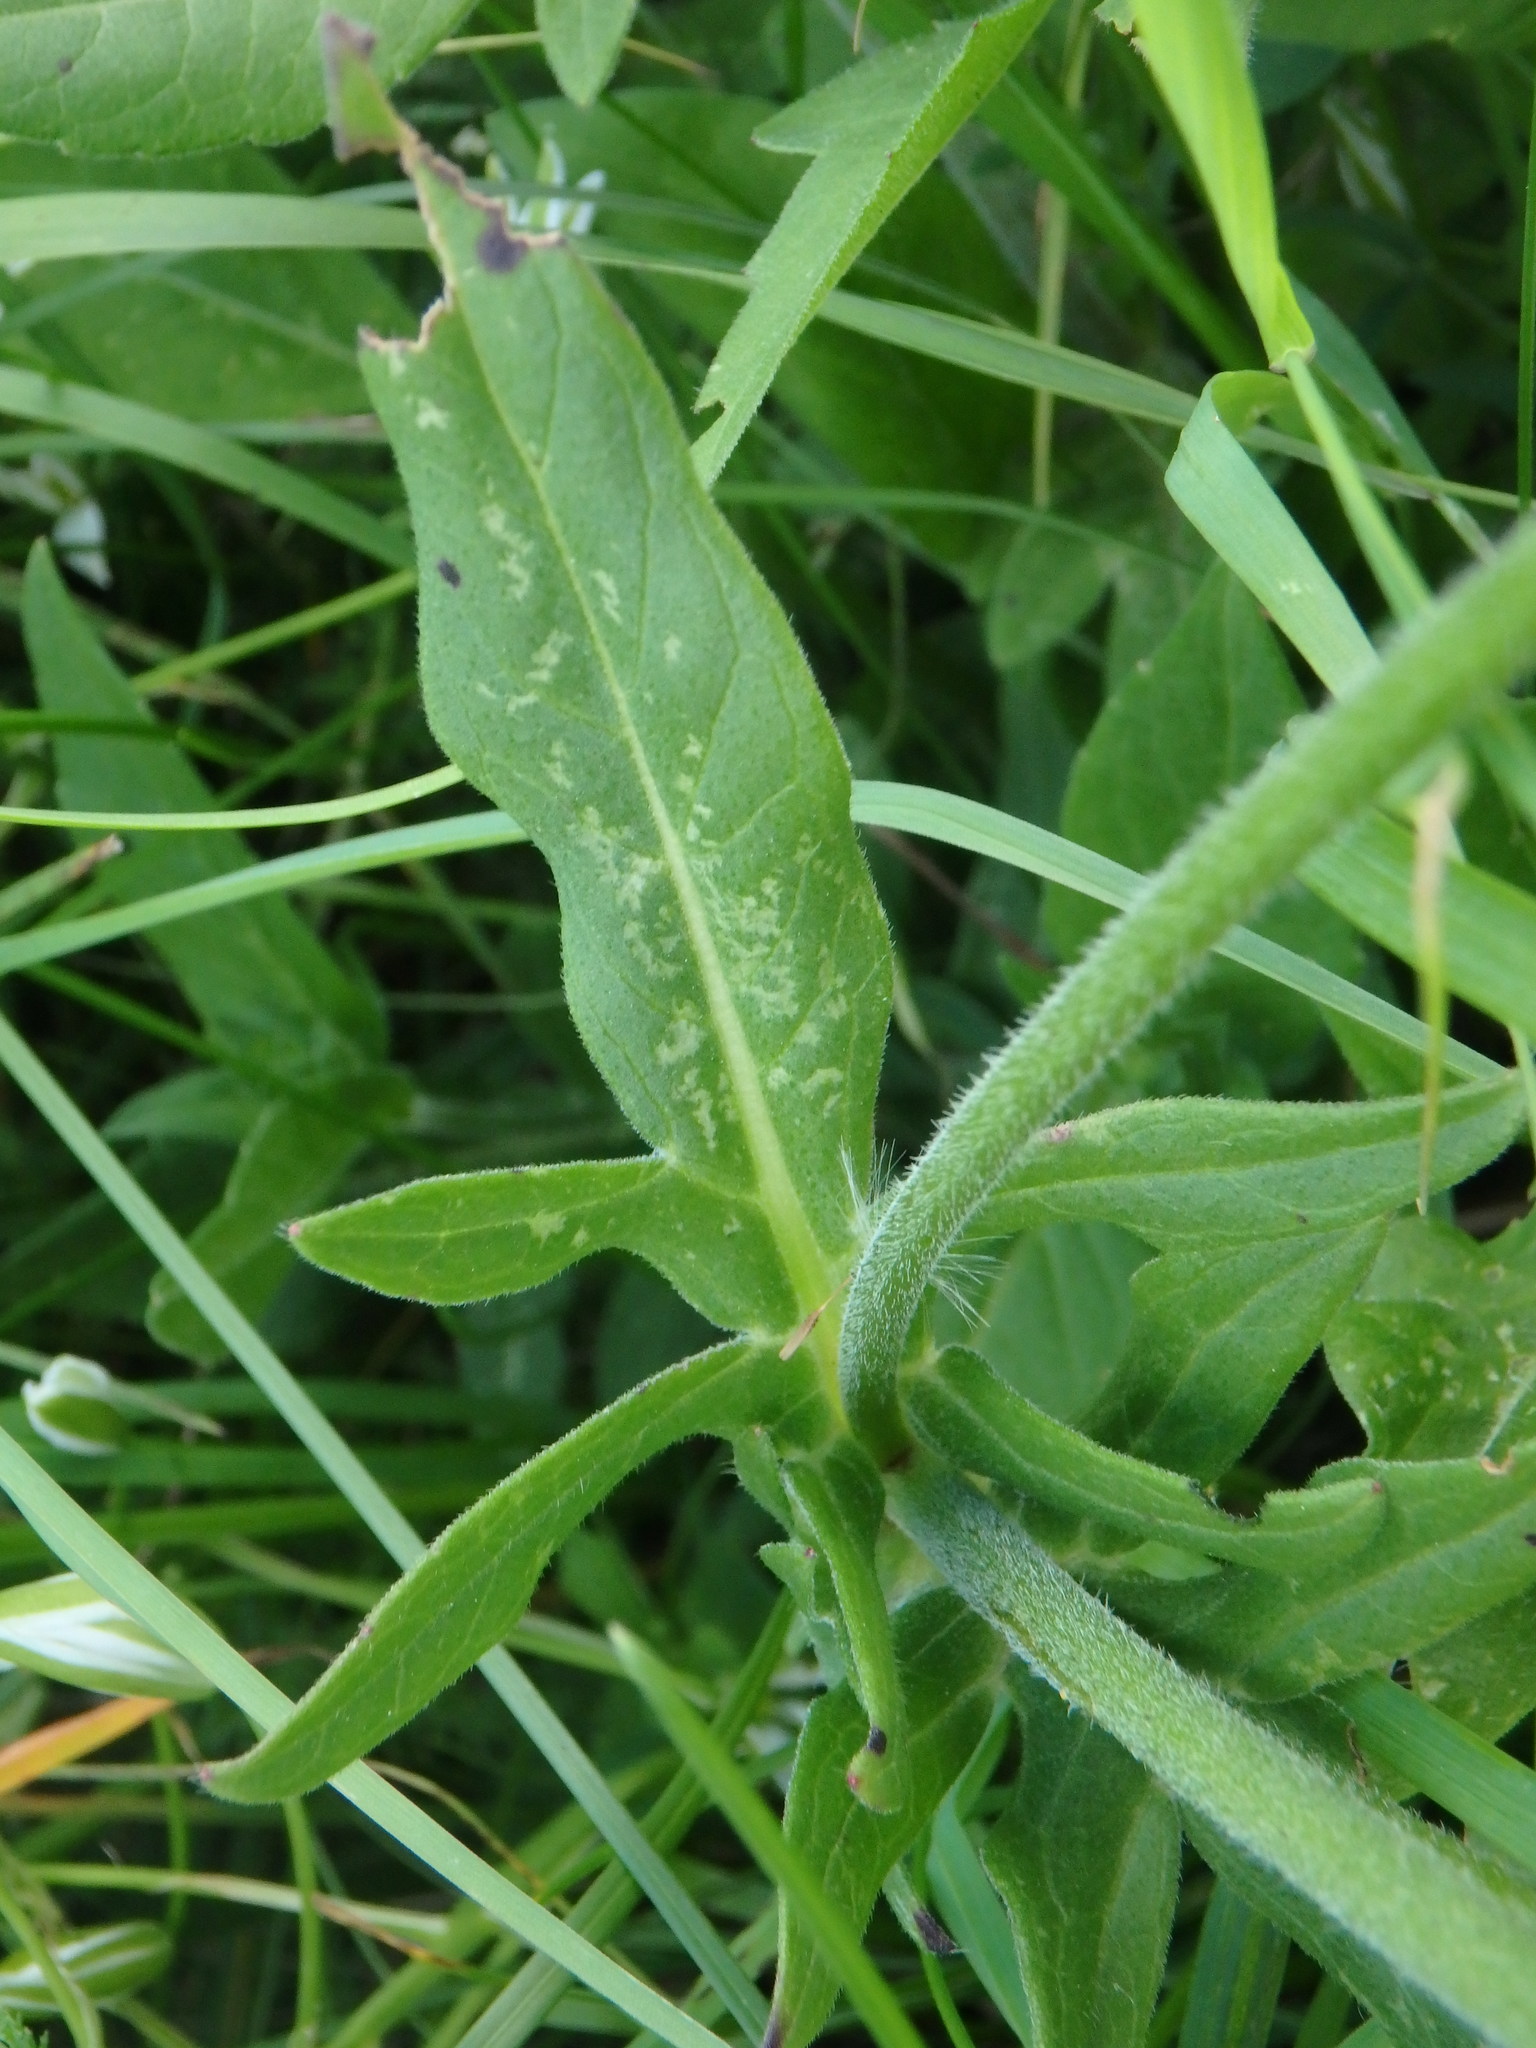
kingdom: Plantae
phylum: Tracheophyta
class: Magnoliopsida
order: Dipsacales
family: Caprifoliaceae
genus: Knautia
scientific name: Knautia arvensis
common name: Field scabiosa
